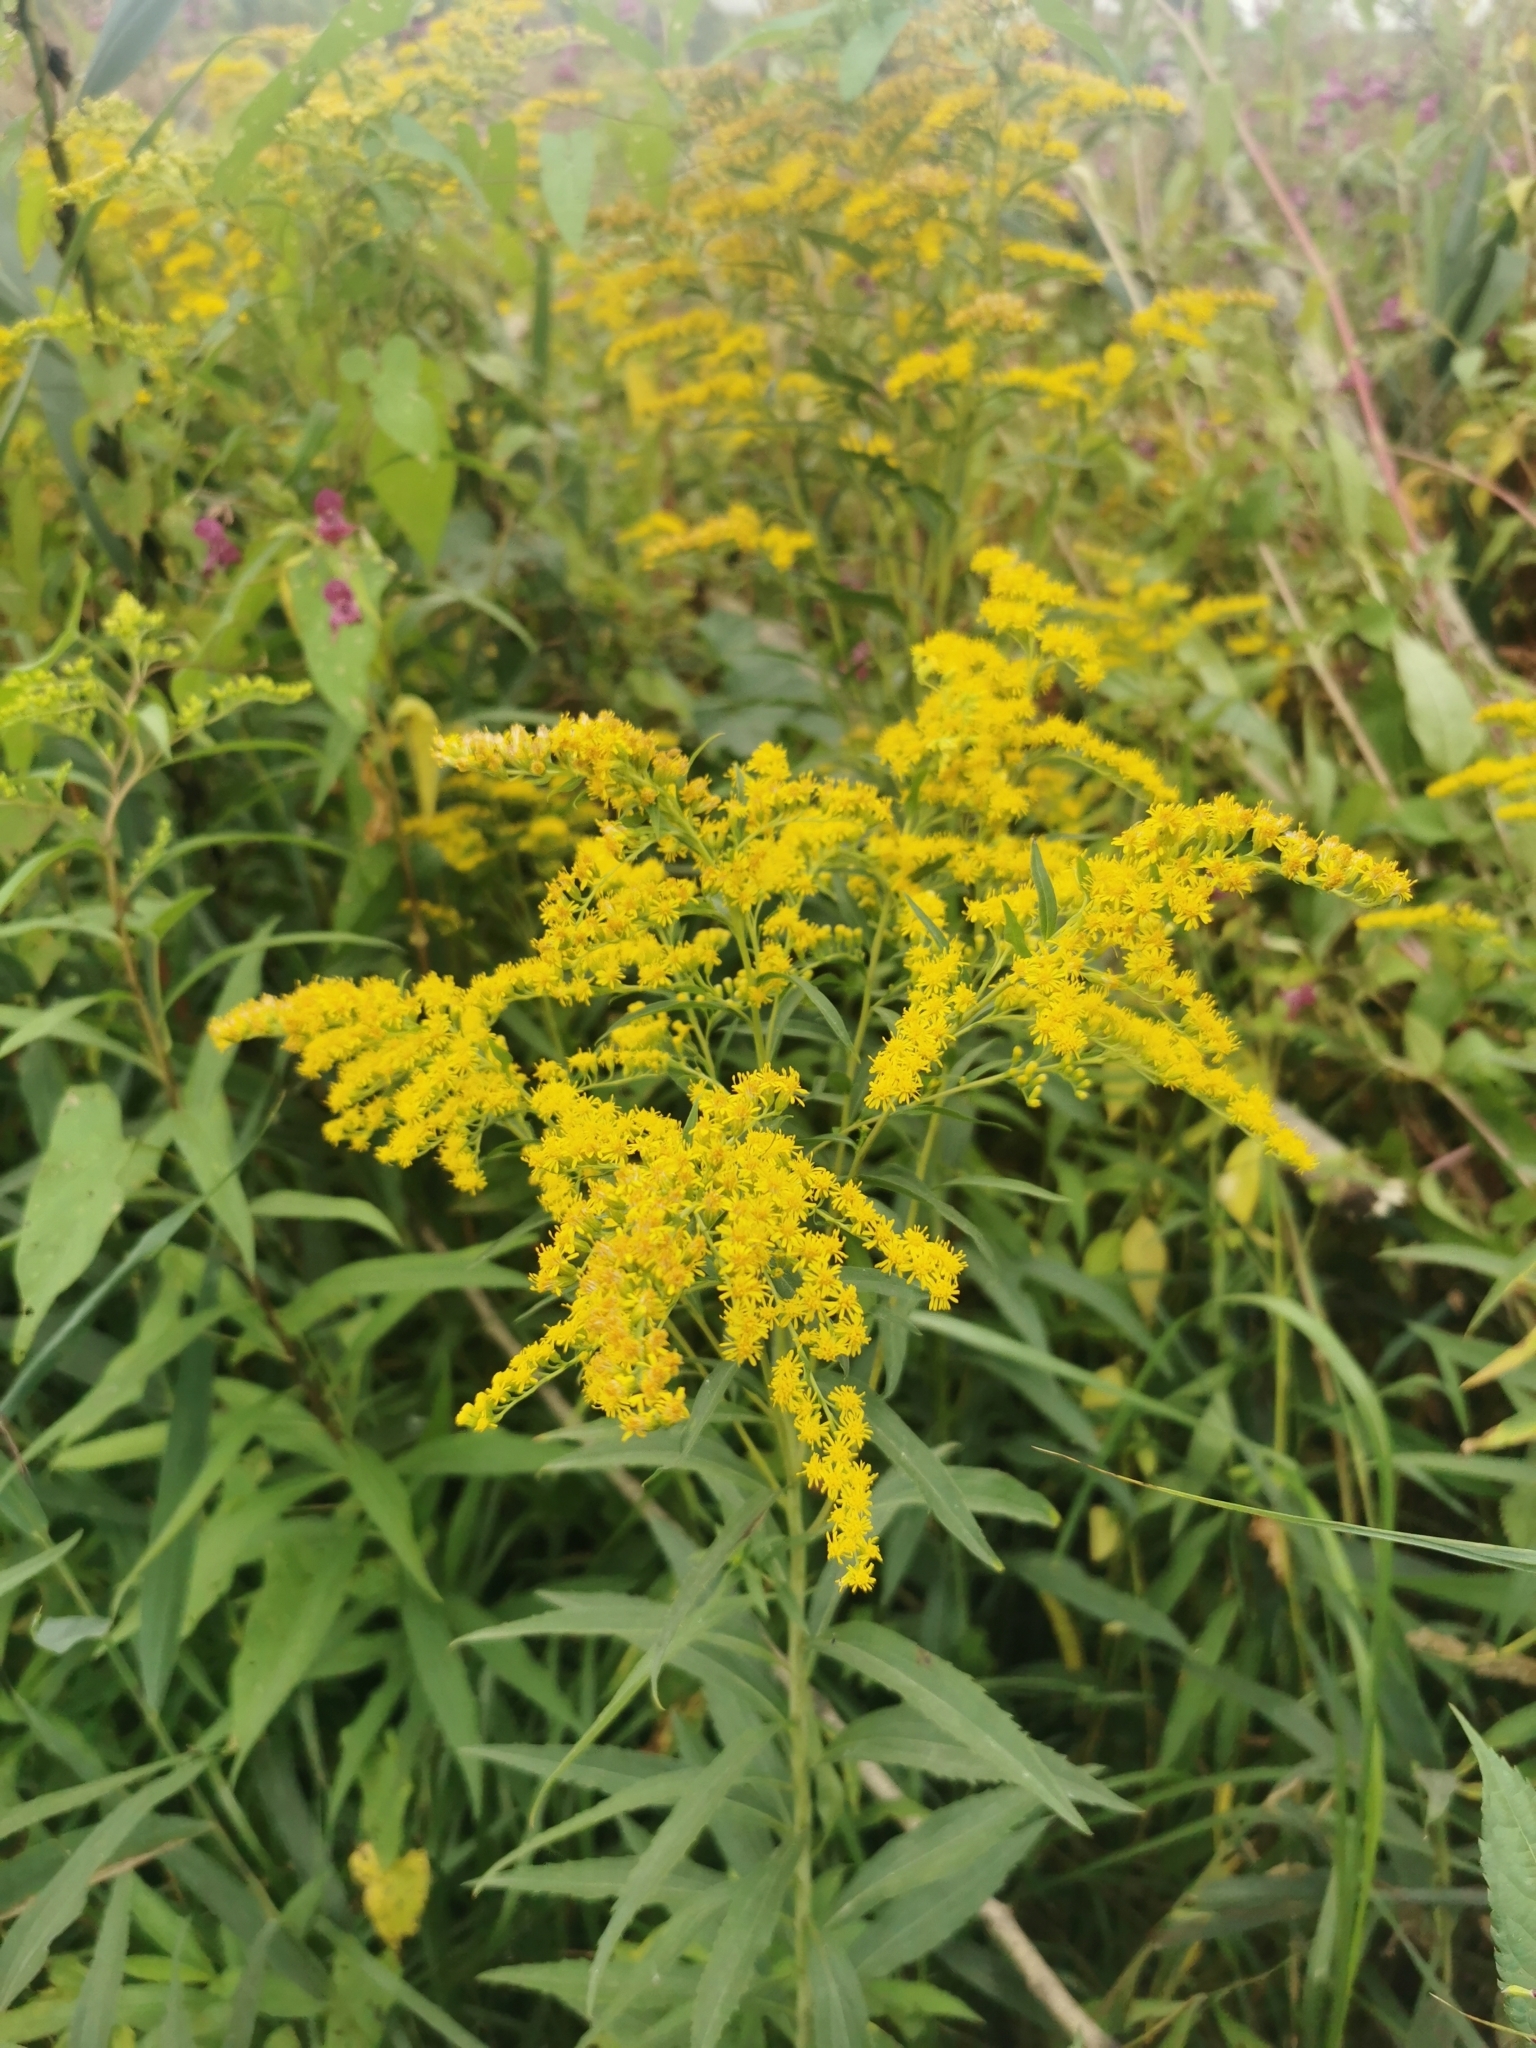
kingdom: Plantae
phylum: Tracheophyta
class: Magnoliopsida
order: Asterales
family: Asteraceae
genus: Solidago
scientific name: Solidago gigantea
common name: Giant goldenrod
